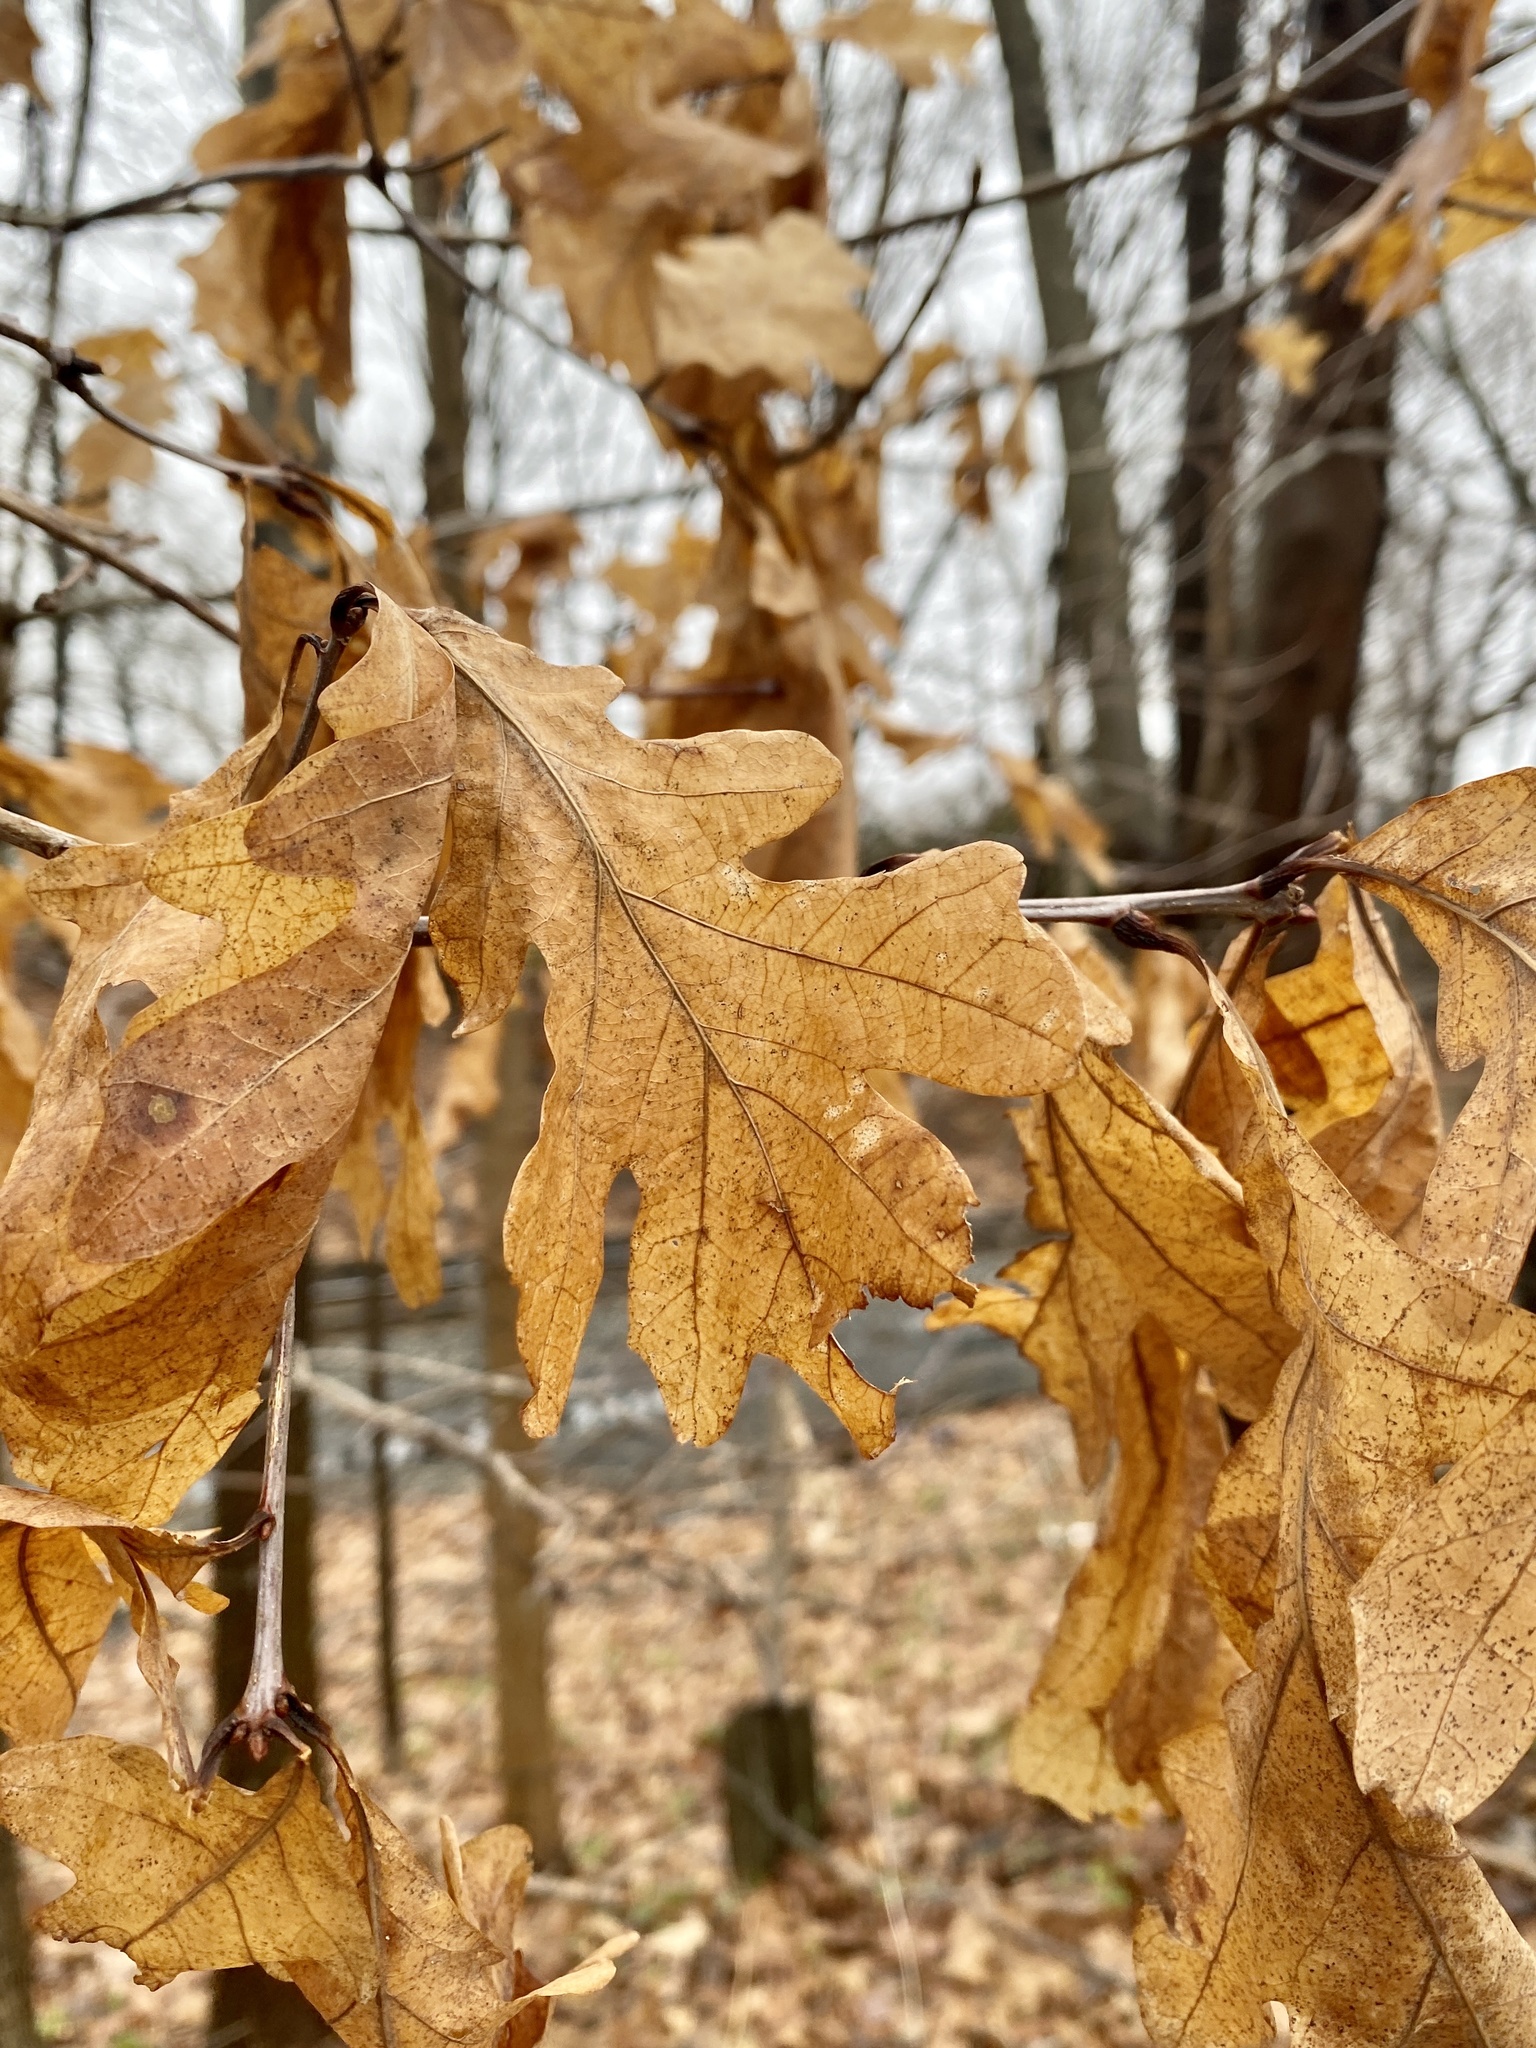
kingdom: Plantae
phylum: Tracheophyta
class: Magnoliopsida
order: Fagales
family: Fagaceae
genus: Quercus
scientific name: Quercus alba
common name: White oak
